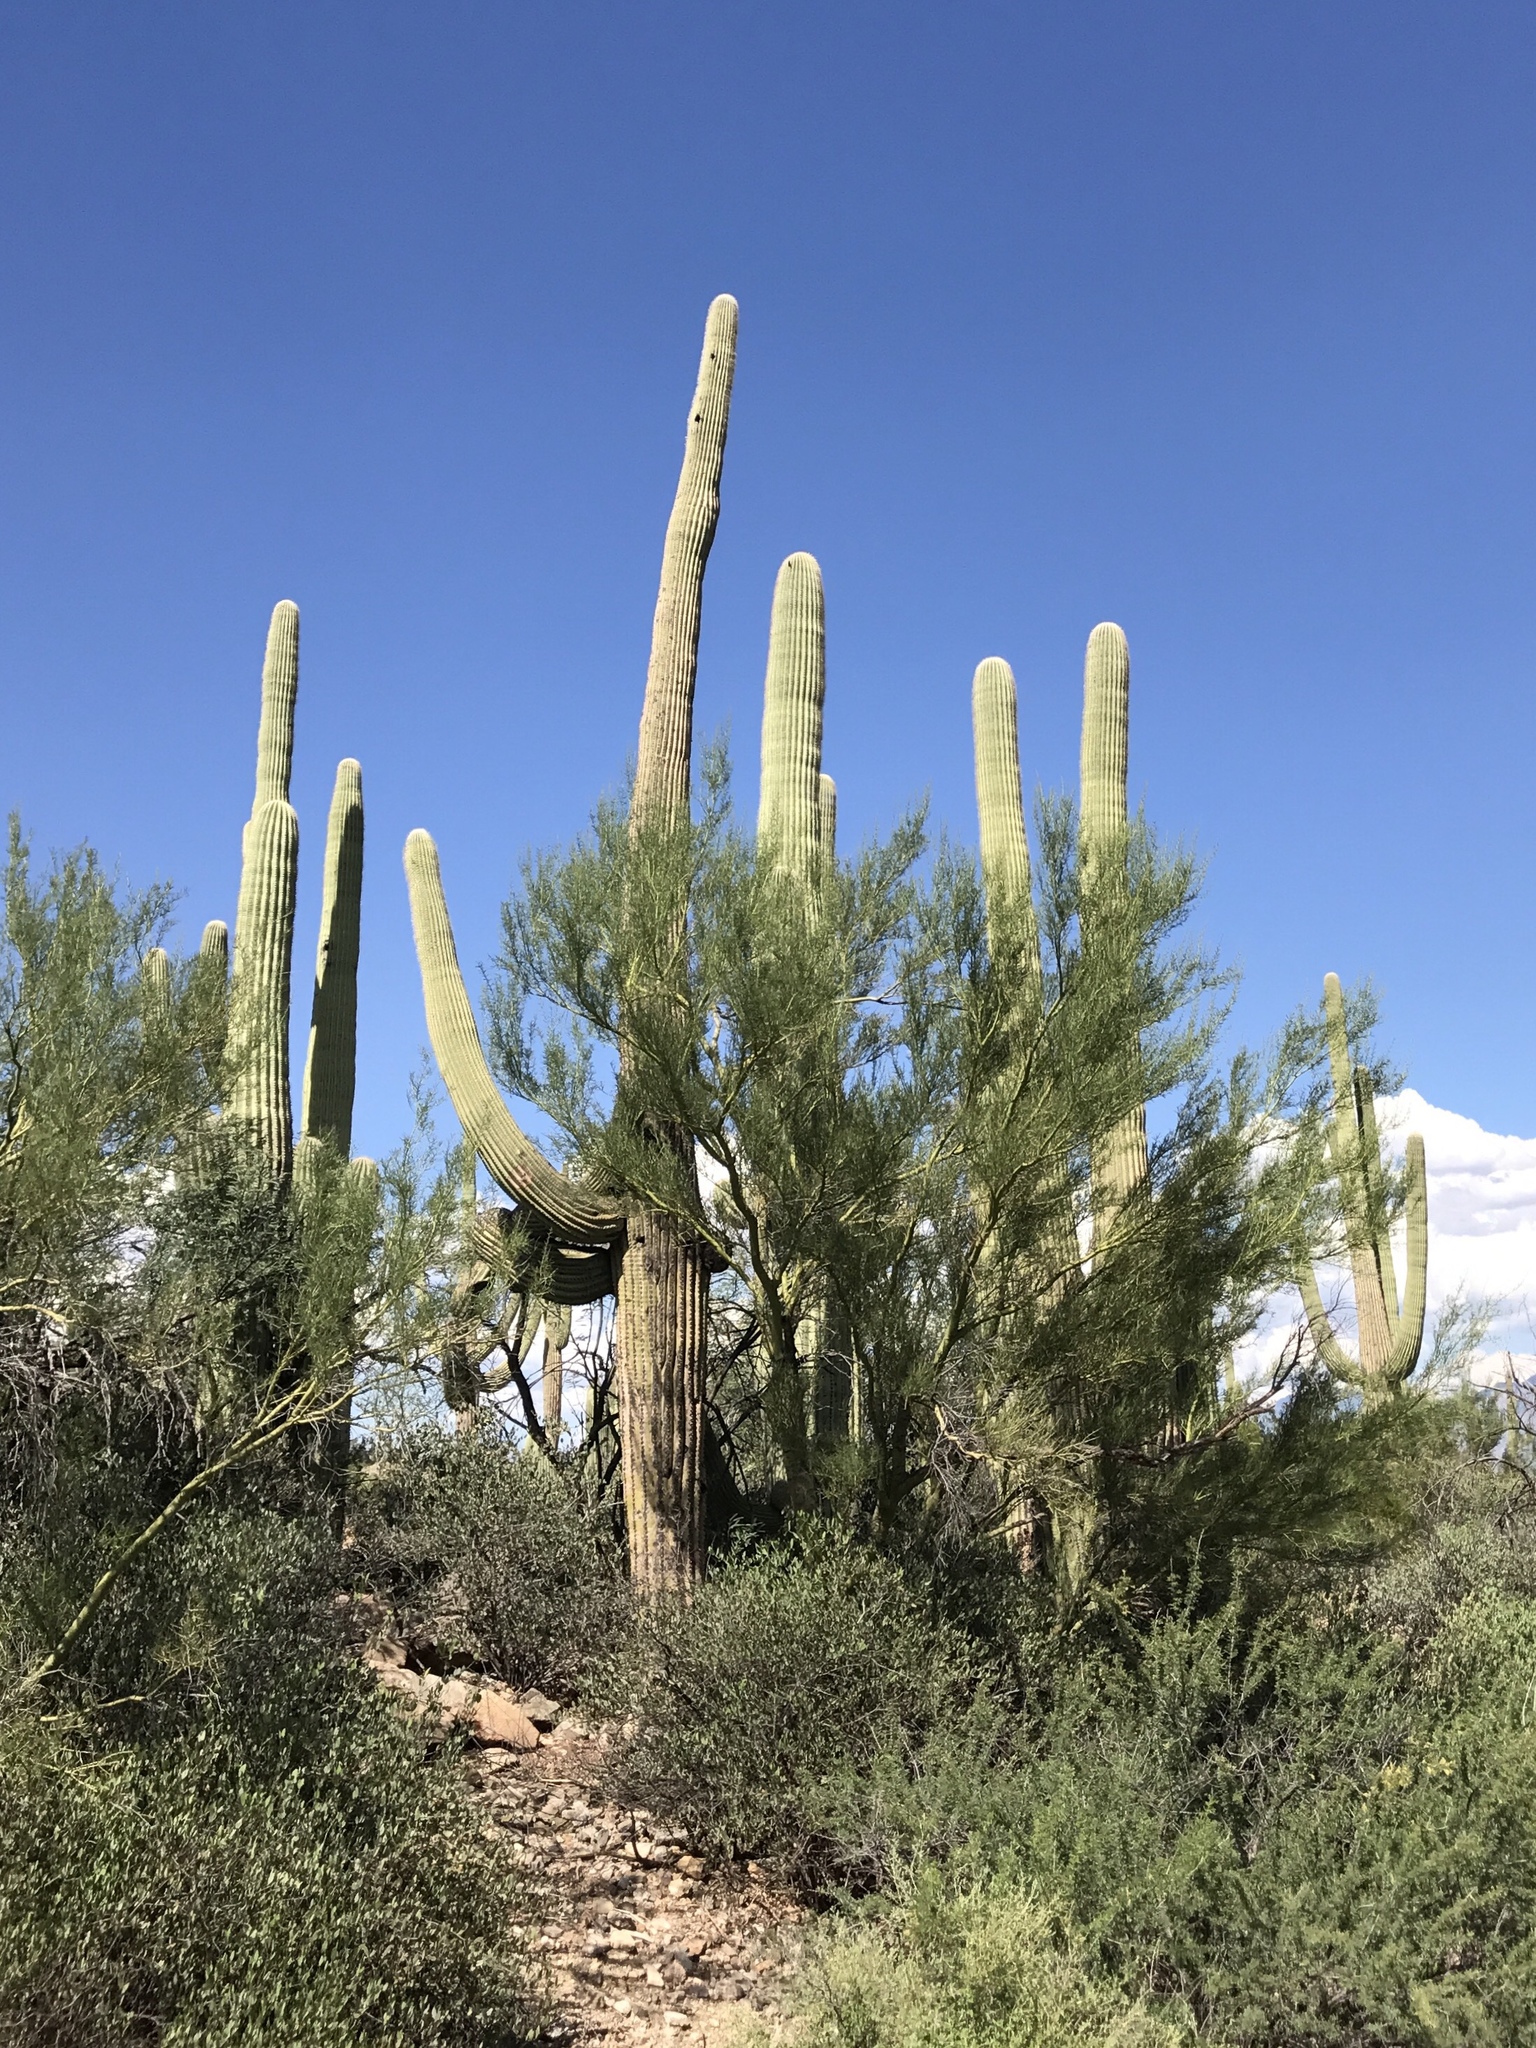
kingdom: Plantae
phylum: Tracheophyta
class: Magnoliopsida
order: Caryophyllales
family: Cactaceae
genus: Carnegiea
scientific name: Carnegiea gigantea
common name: Saguaro
